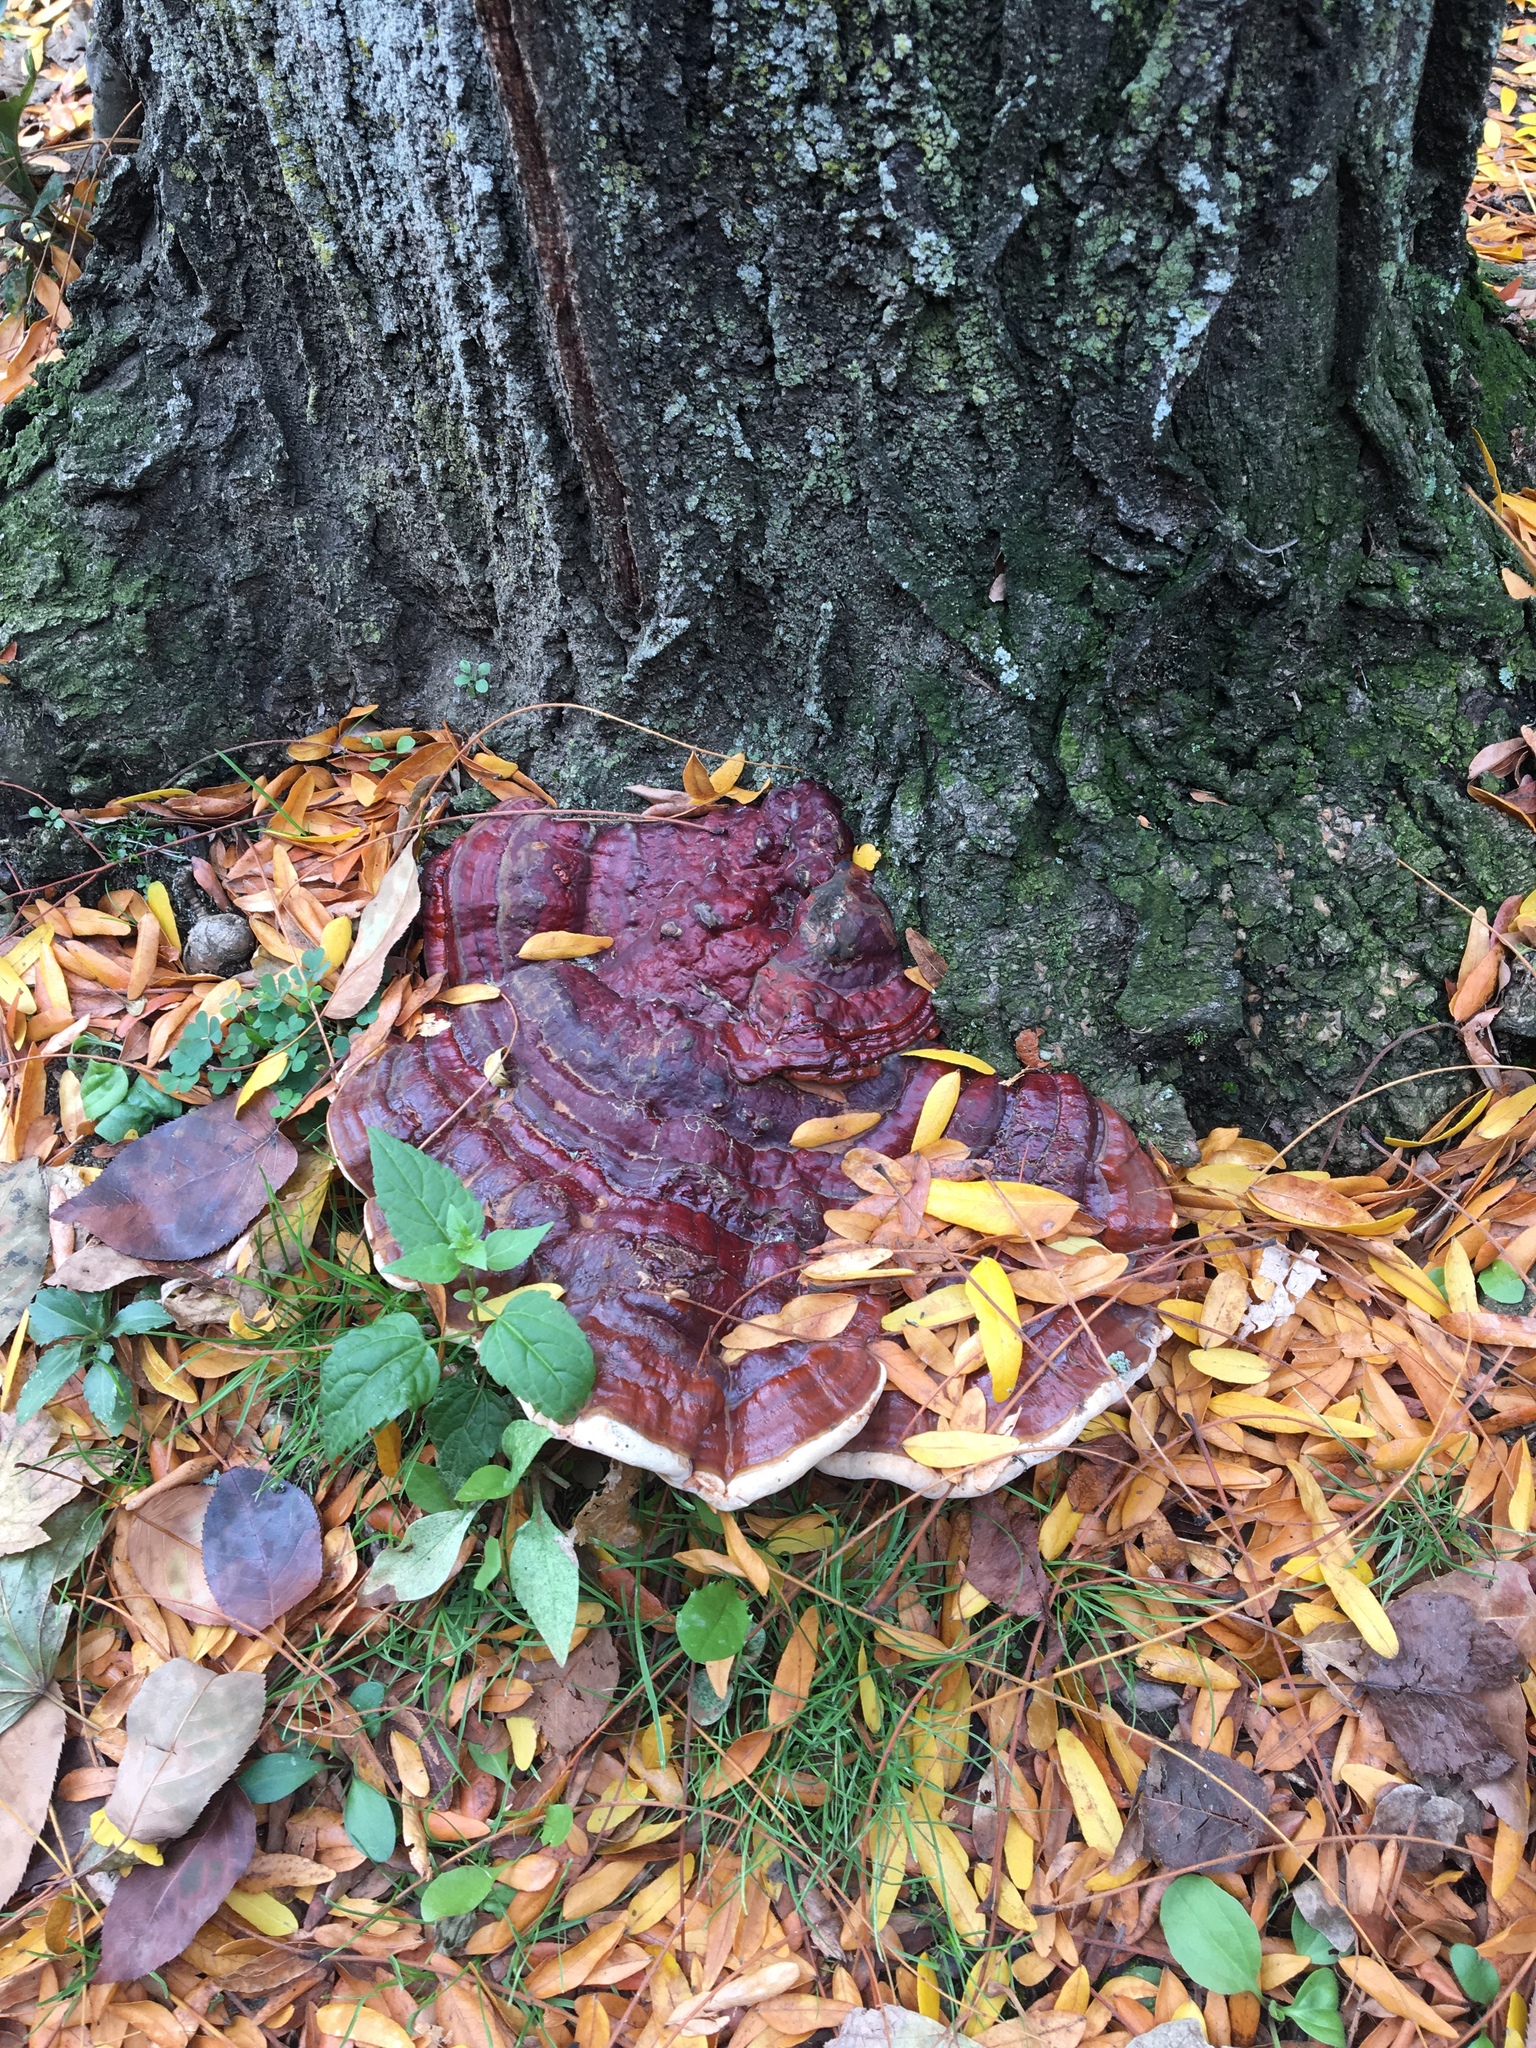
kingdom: Fungi
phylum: Basidiomycota
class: Agaricomycetes
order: Polyporales
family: Polyporaceae
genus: Ganoderma
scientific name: Ganoderma resinaceum
